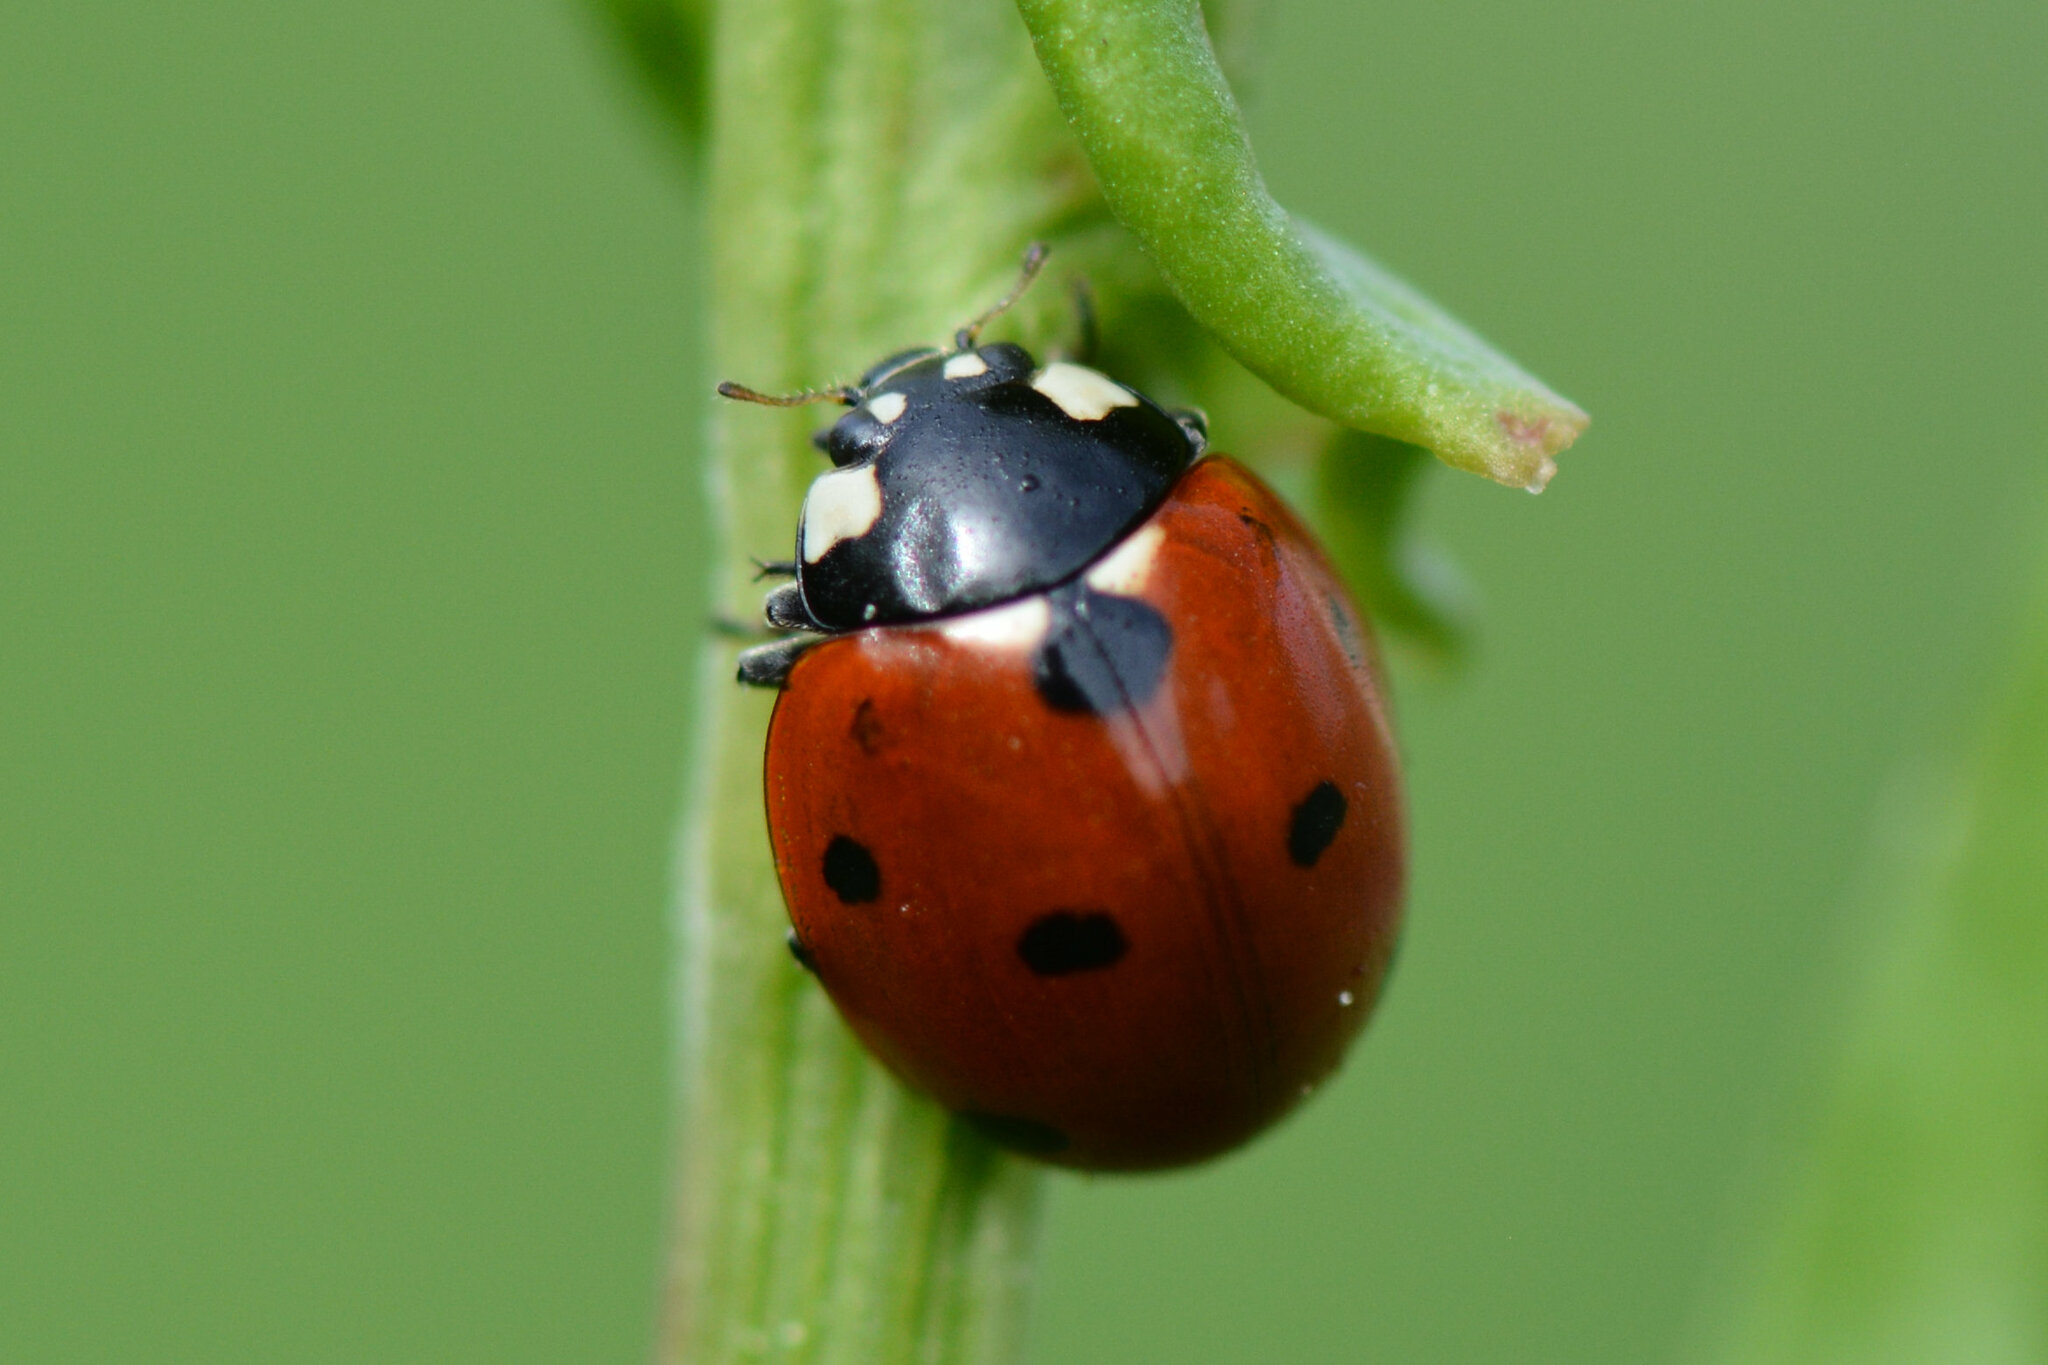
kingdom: Animalia
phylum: Arthropoda
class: Insecta
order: Coleoptera
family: Coccinellidae
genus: Coccinella
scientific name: Coccinella septempunctata
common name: Sevenspotted lady beetle
